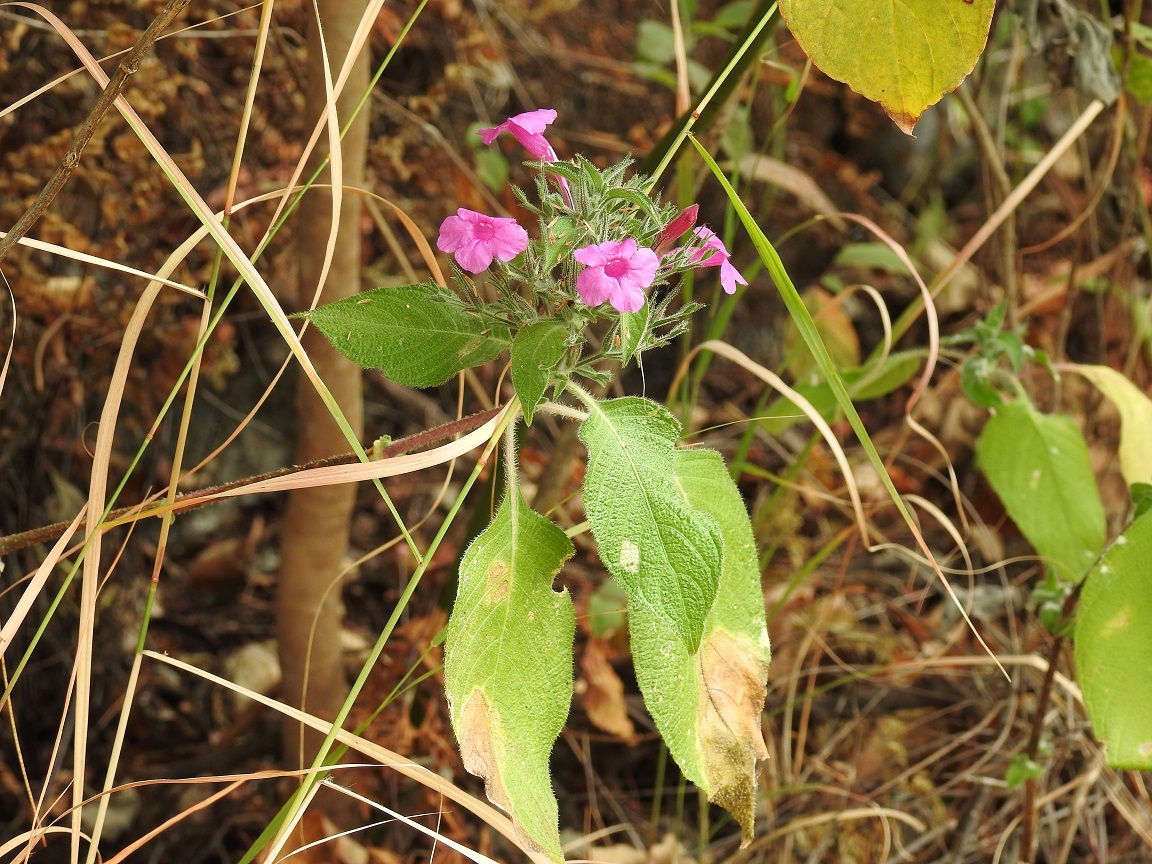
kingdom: Plantae
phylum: Tracheophyta
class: Magnoliopsida
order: Lamiales
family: Acanthaceae
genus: Ruellia
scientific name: Ruellia inundata
